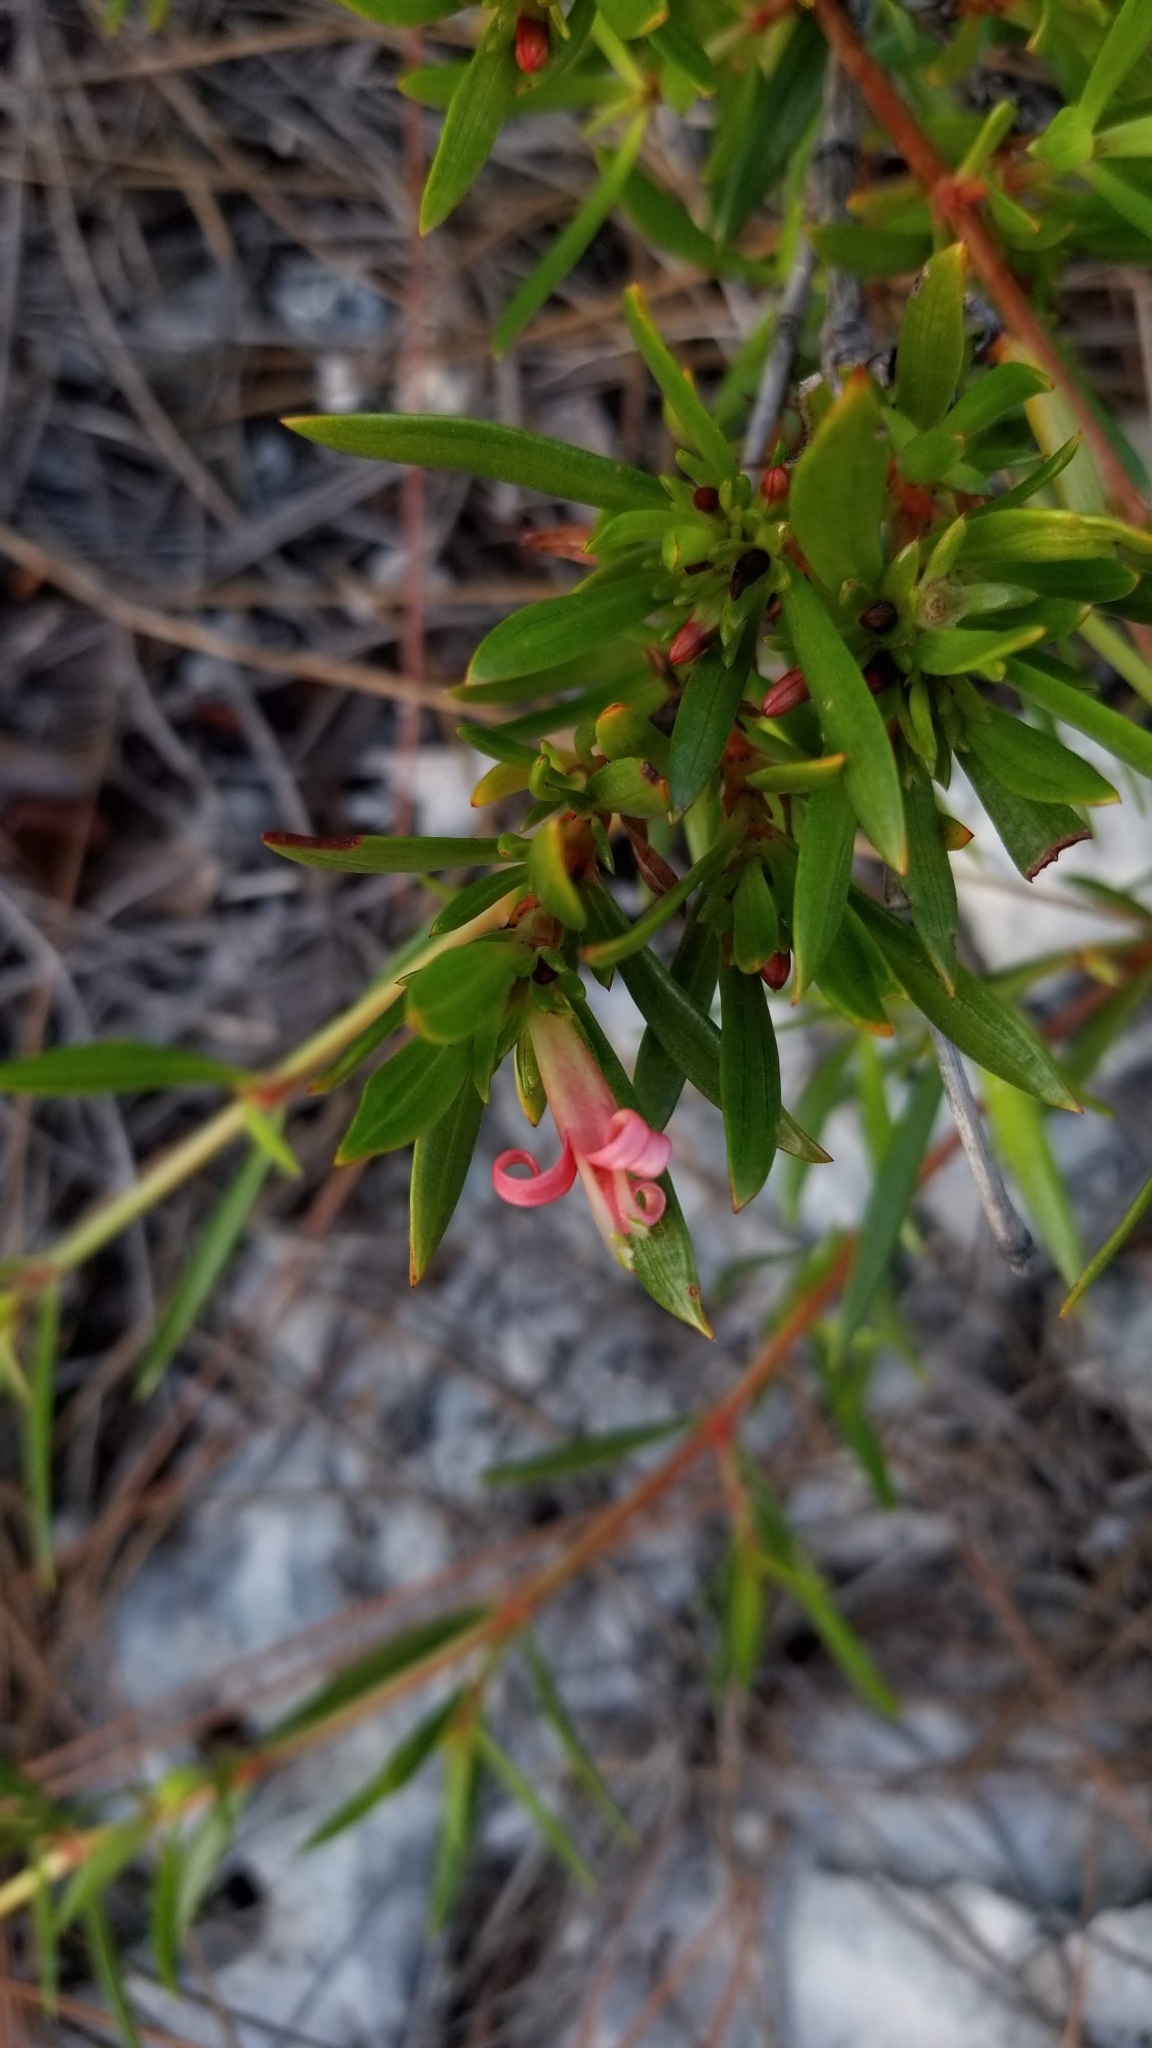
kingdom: Plantae
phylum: Tracheophyta
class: Magnoliopsida
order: Gentianales
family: Rubiaceae
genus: Ernodea
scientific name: Ernodea littoralis
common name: Beach creeper
